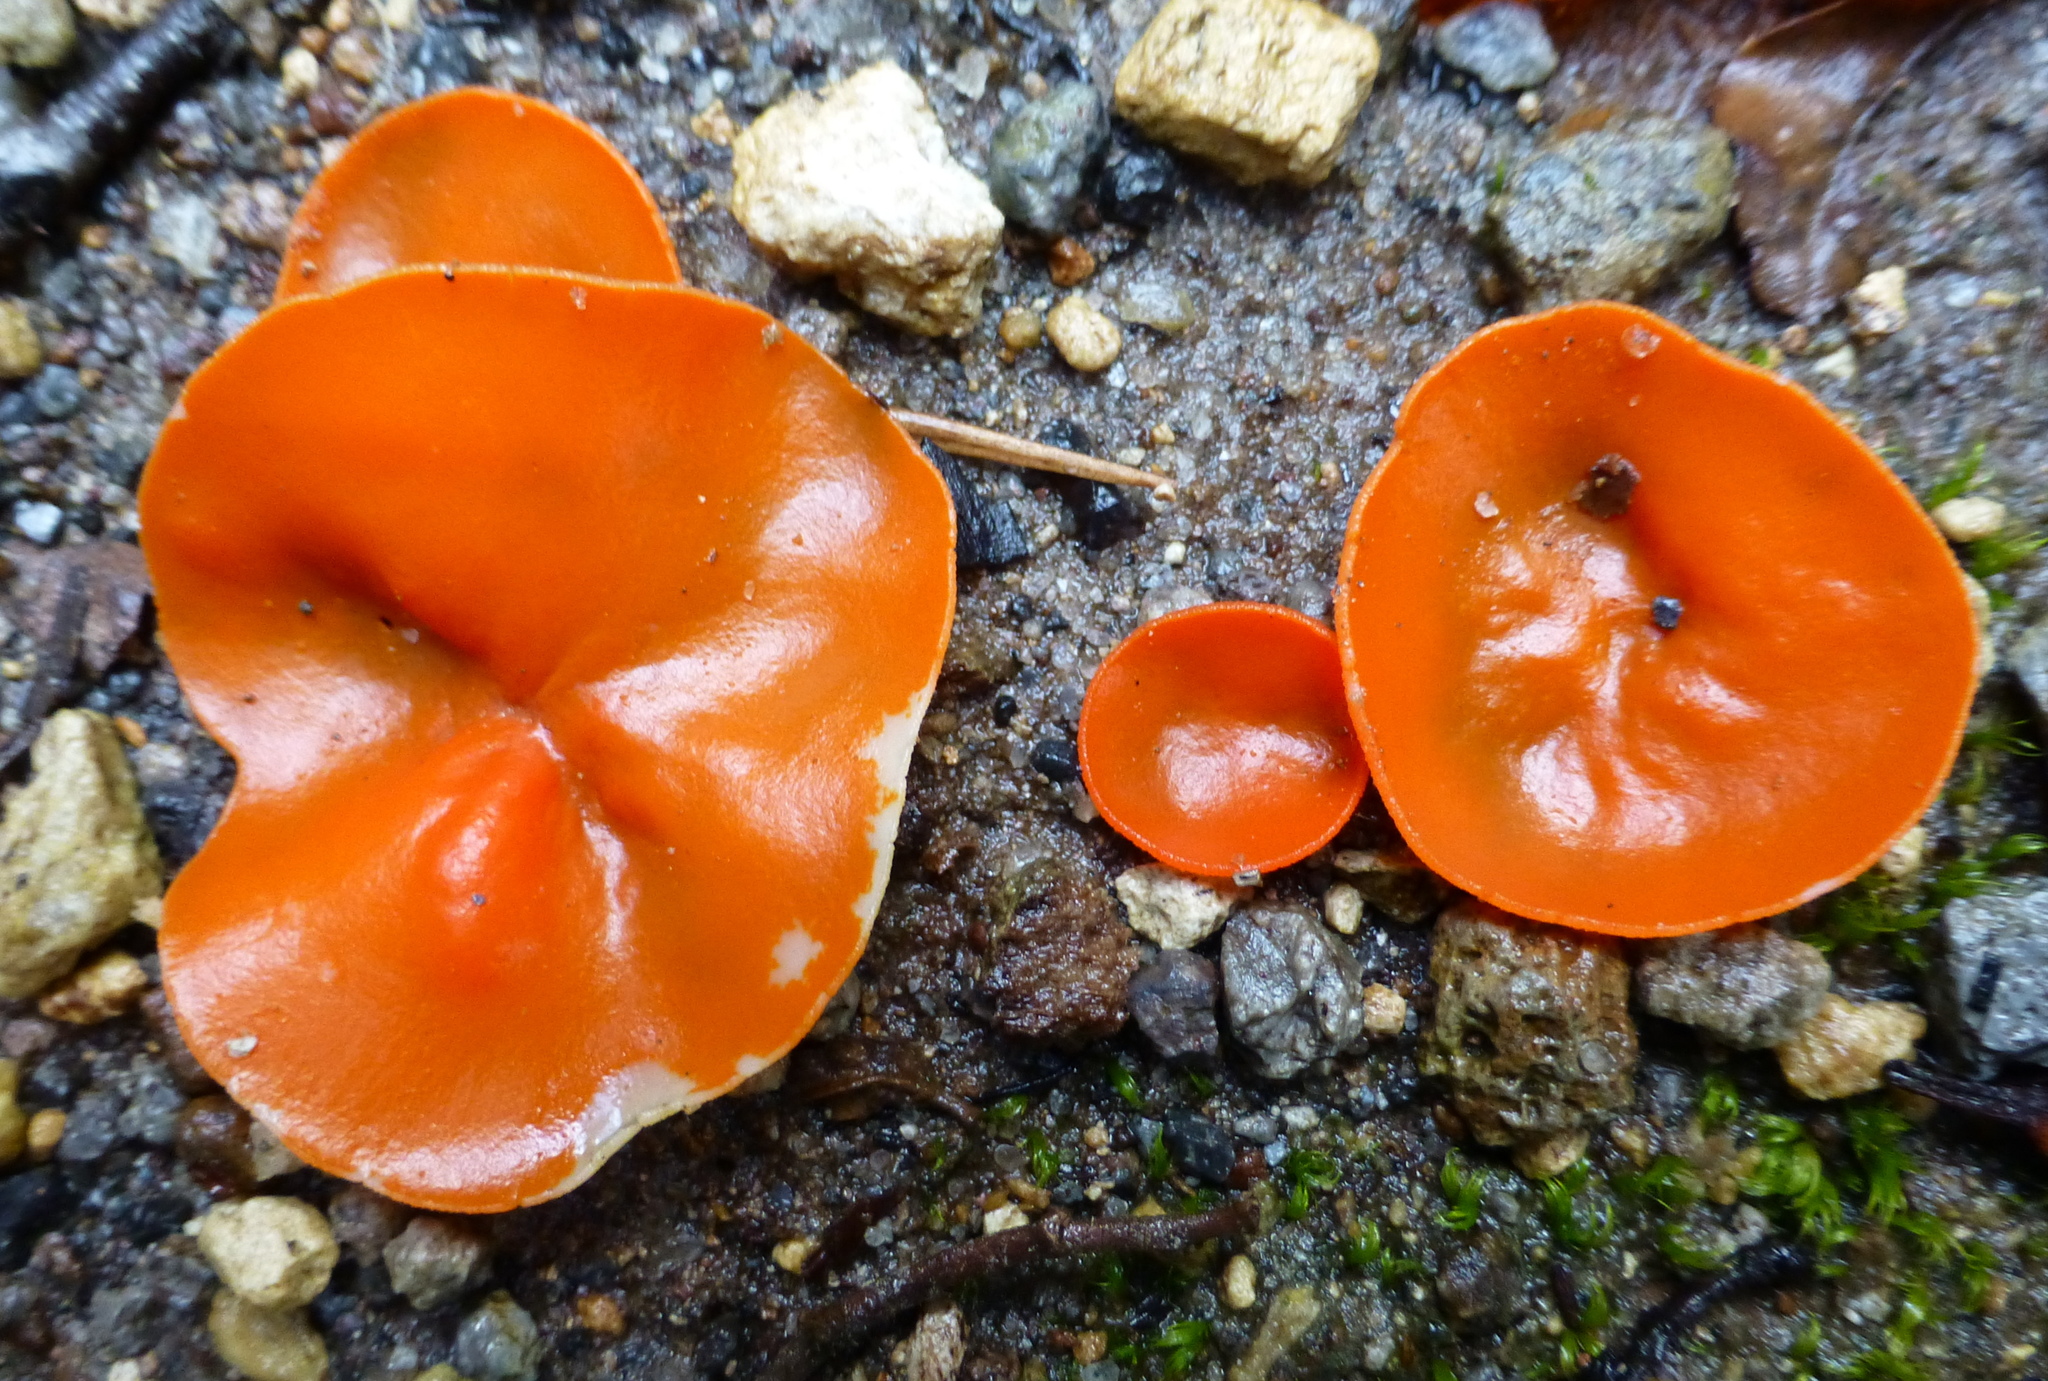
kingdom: Fungi
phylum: Ascomycota
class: Pezizomycetes
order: Pezizales
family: Pyronemataceae
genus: Aleuria
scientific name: Aleuria aurantia
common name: Orange peel fungus
